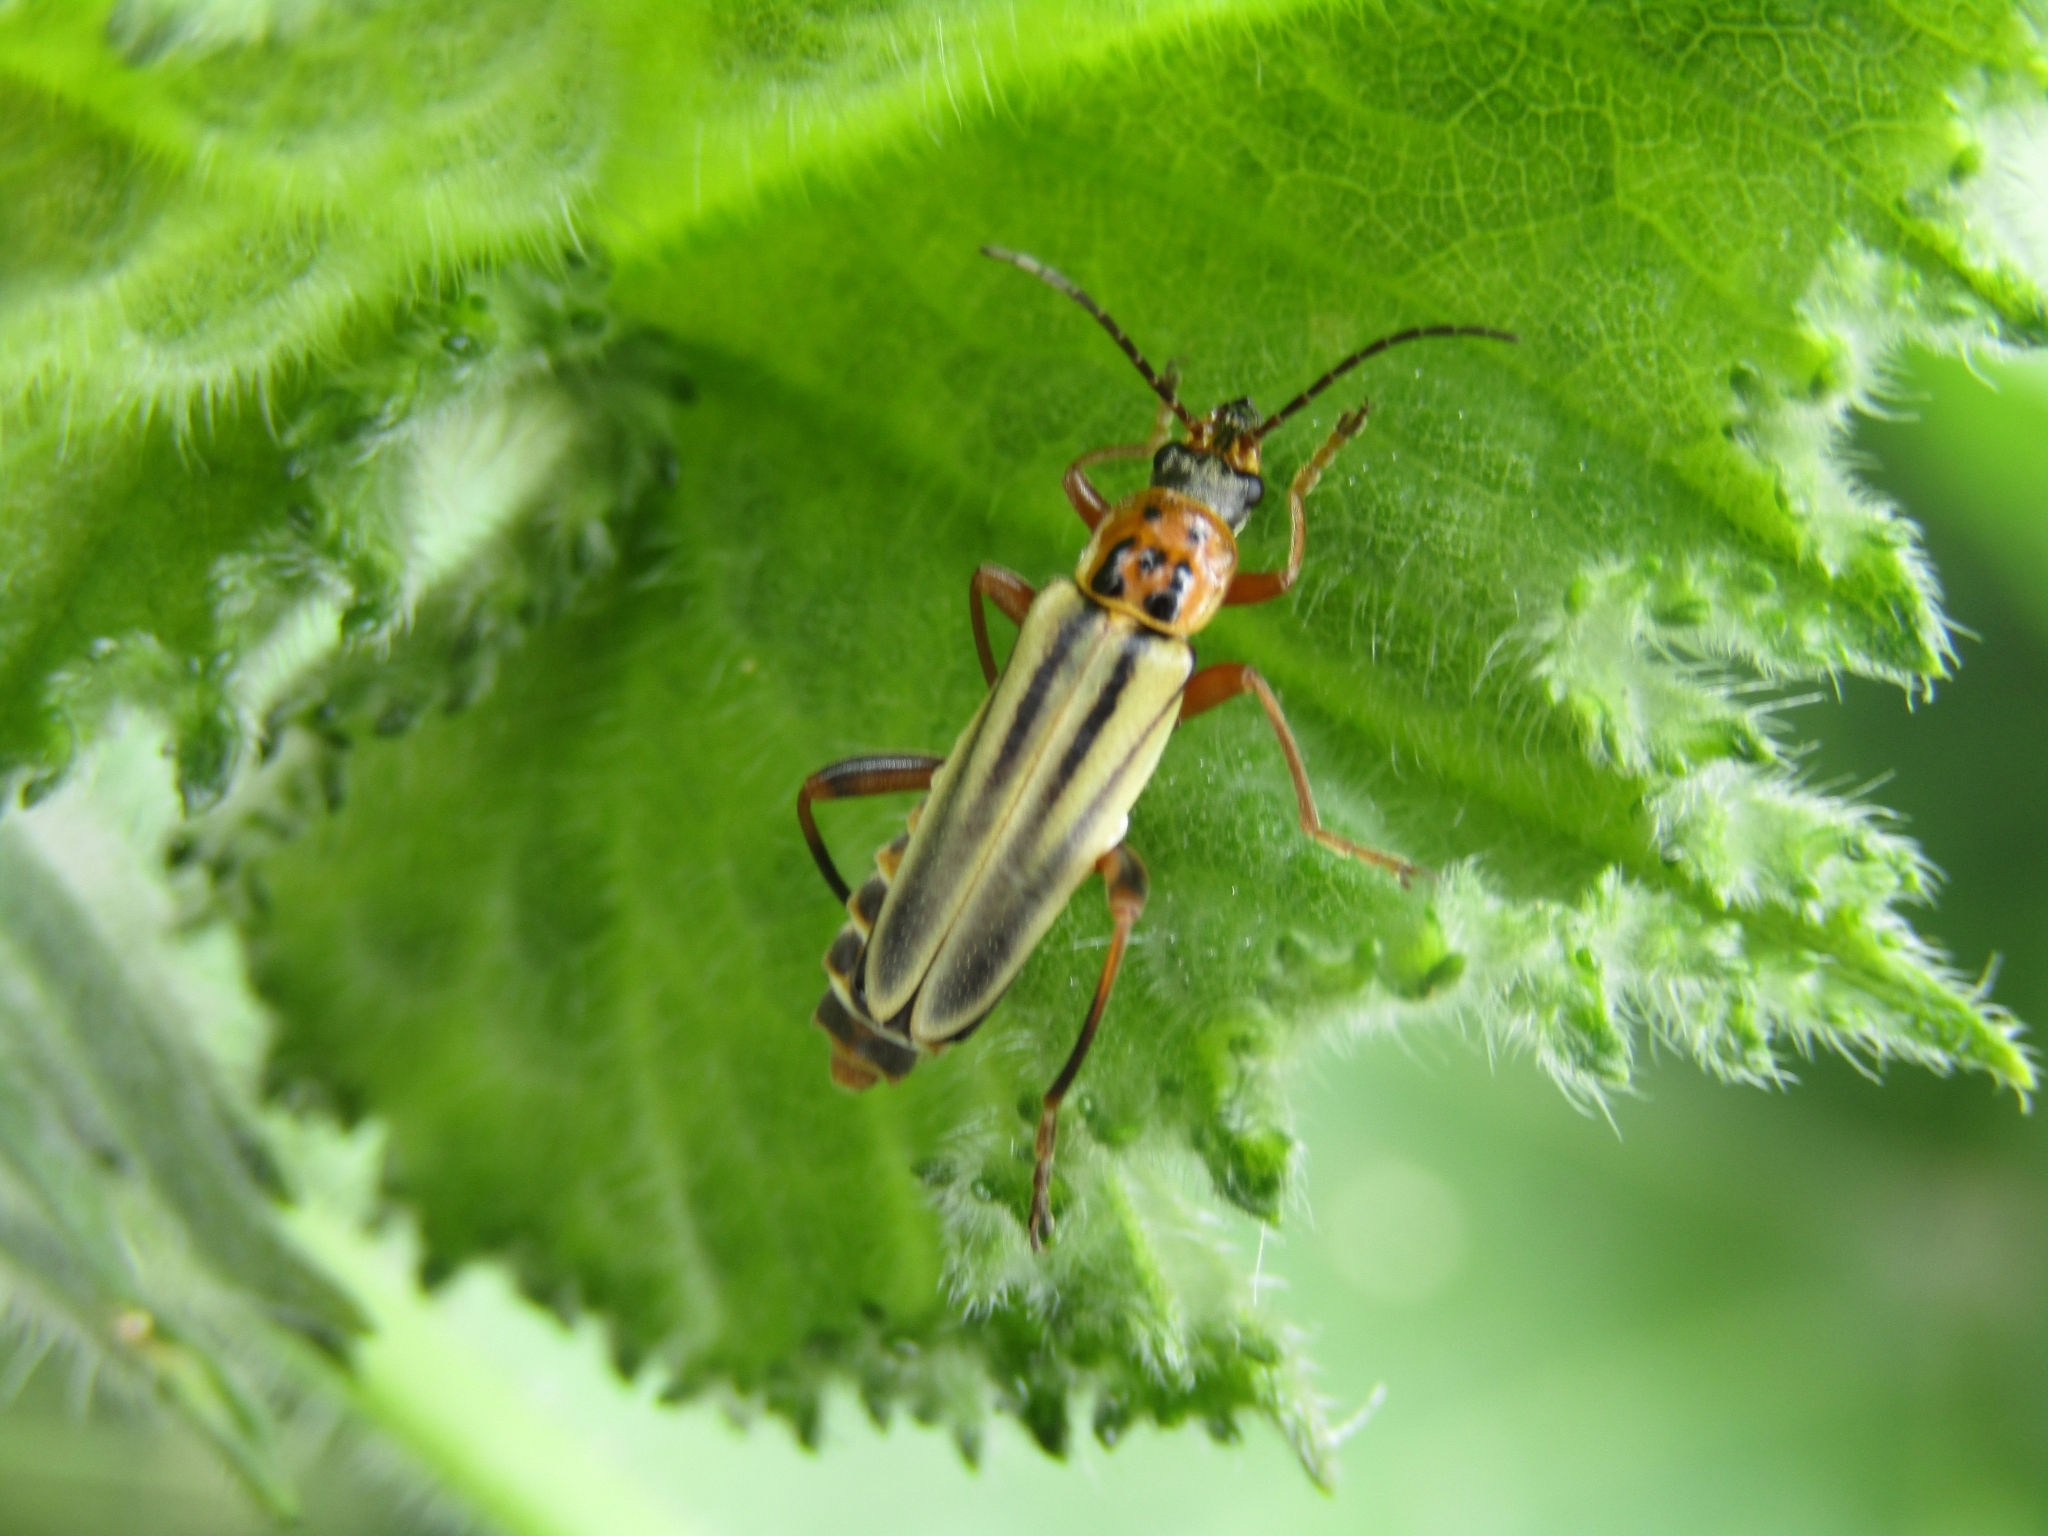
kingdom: Animalia
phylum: Arthropoda
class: Insecta
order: Coleoptera
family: Cantharidae
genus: Chauliognathus
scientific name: Chauliognathus
